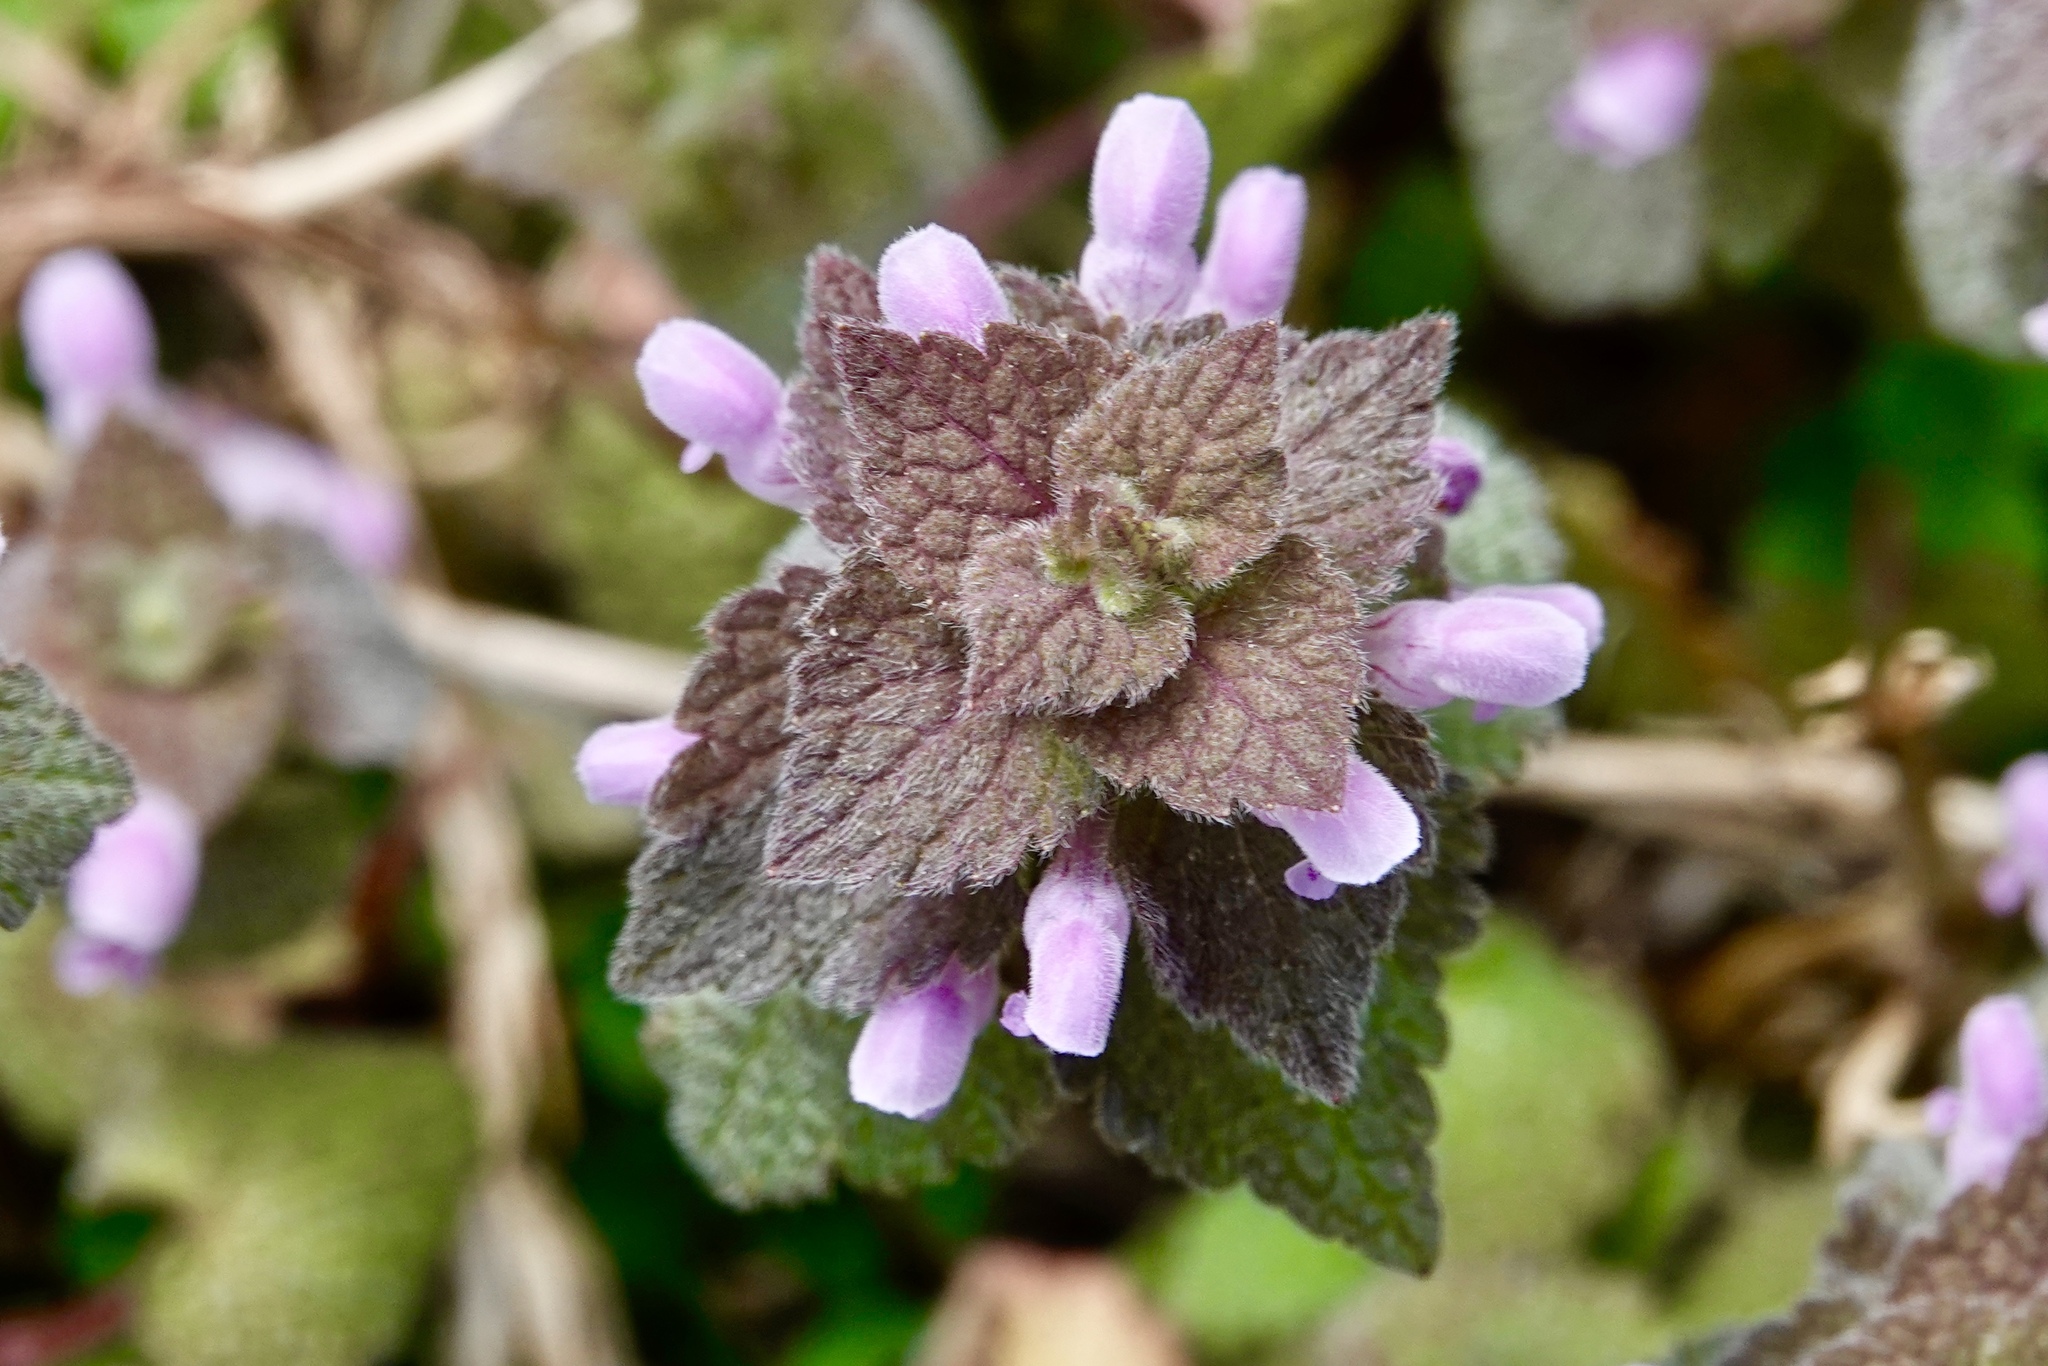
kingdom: Plantae
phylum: Tracheophyta
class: Magnoliopsida
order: Lamiales
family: Lamiaceae
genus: Lamium
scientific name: Lamium purpureum
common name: Red dead-nettle
